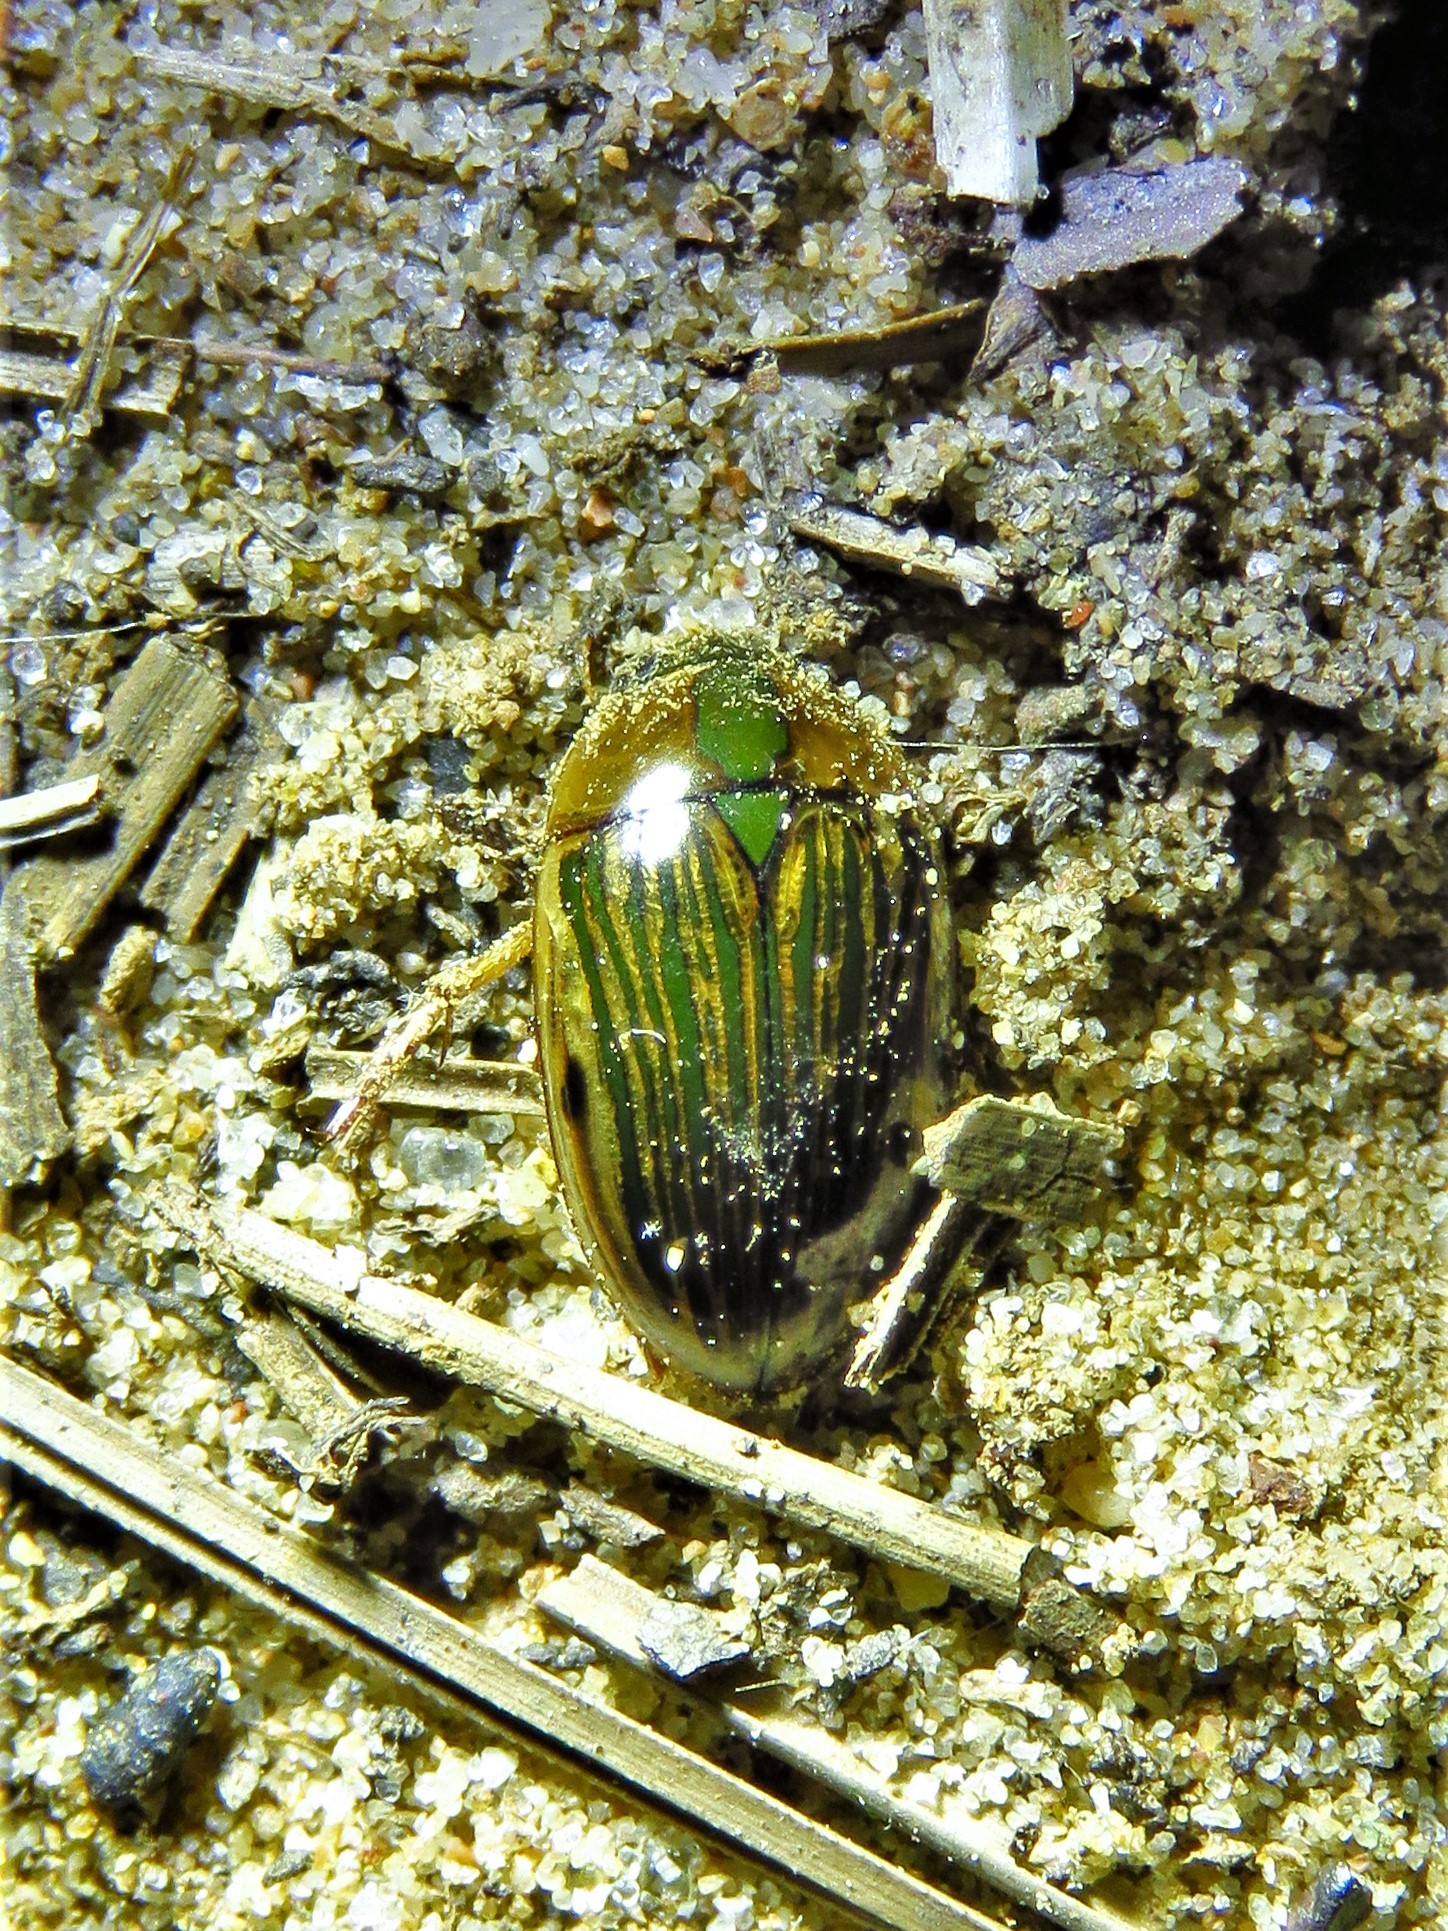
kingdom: Animalia
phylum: Arthropoda
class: Insecta
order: Coleoptera
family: Hydrophilidae
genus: Tropisternus
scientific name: Tropisternus collaris
